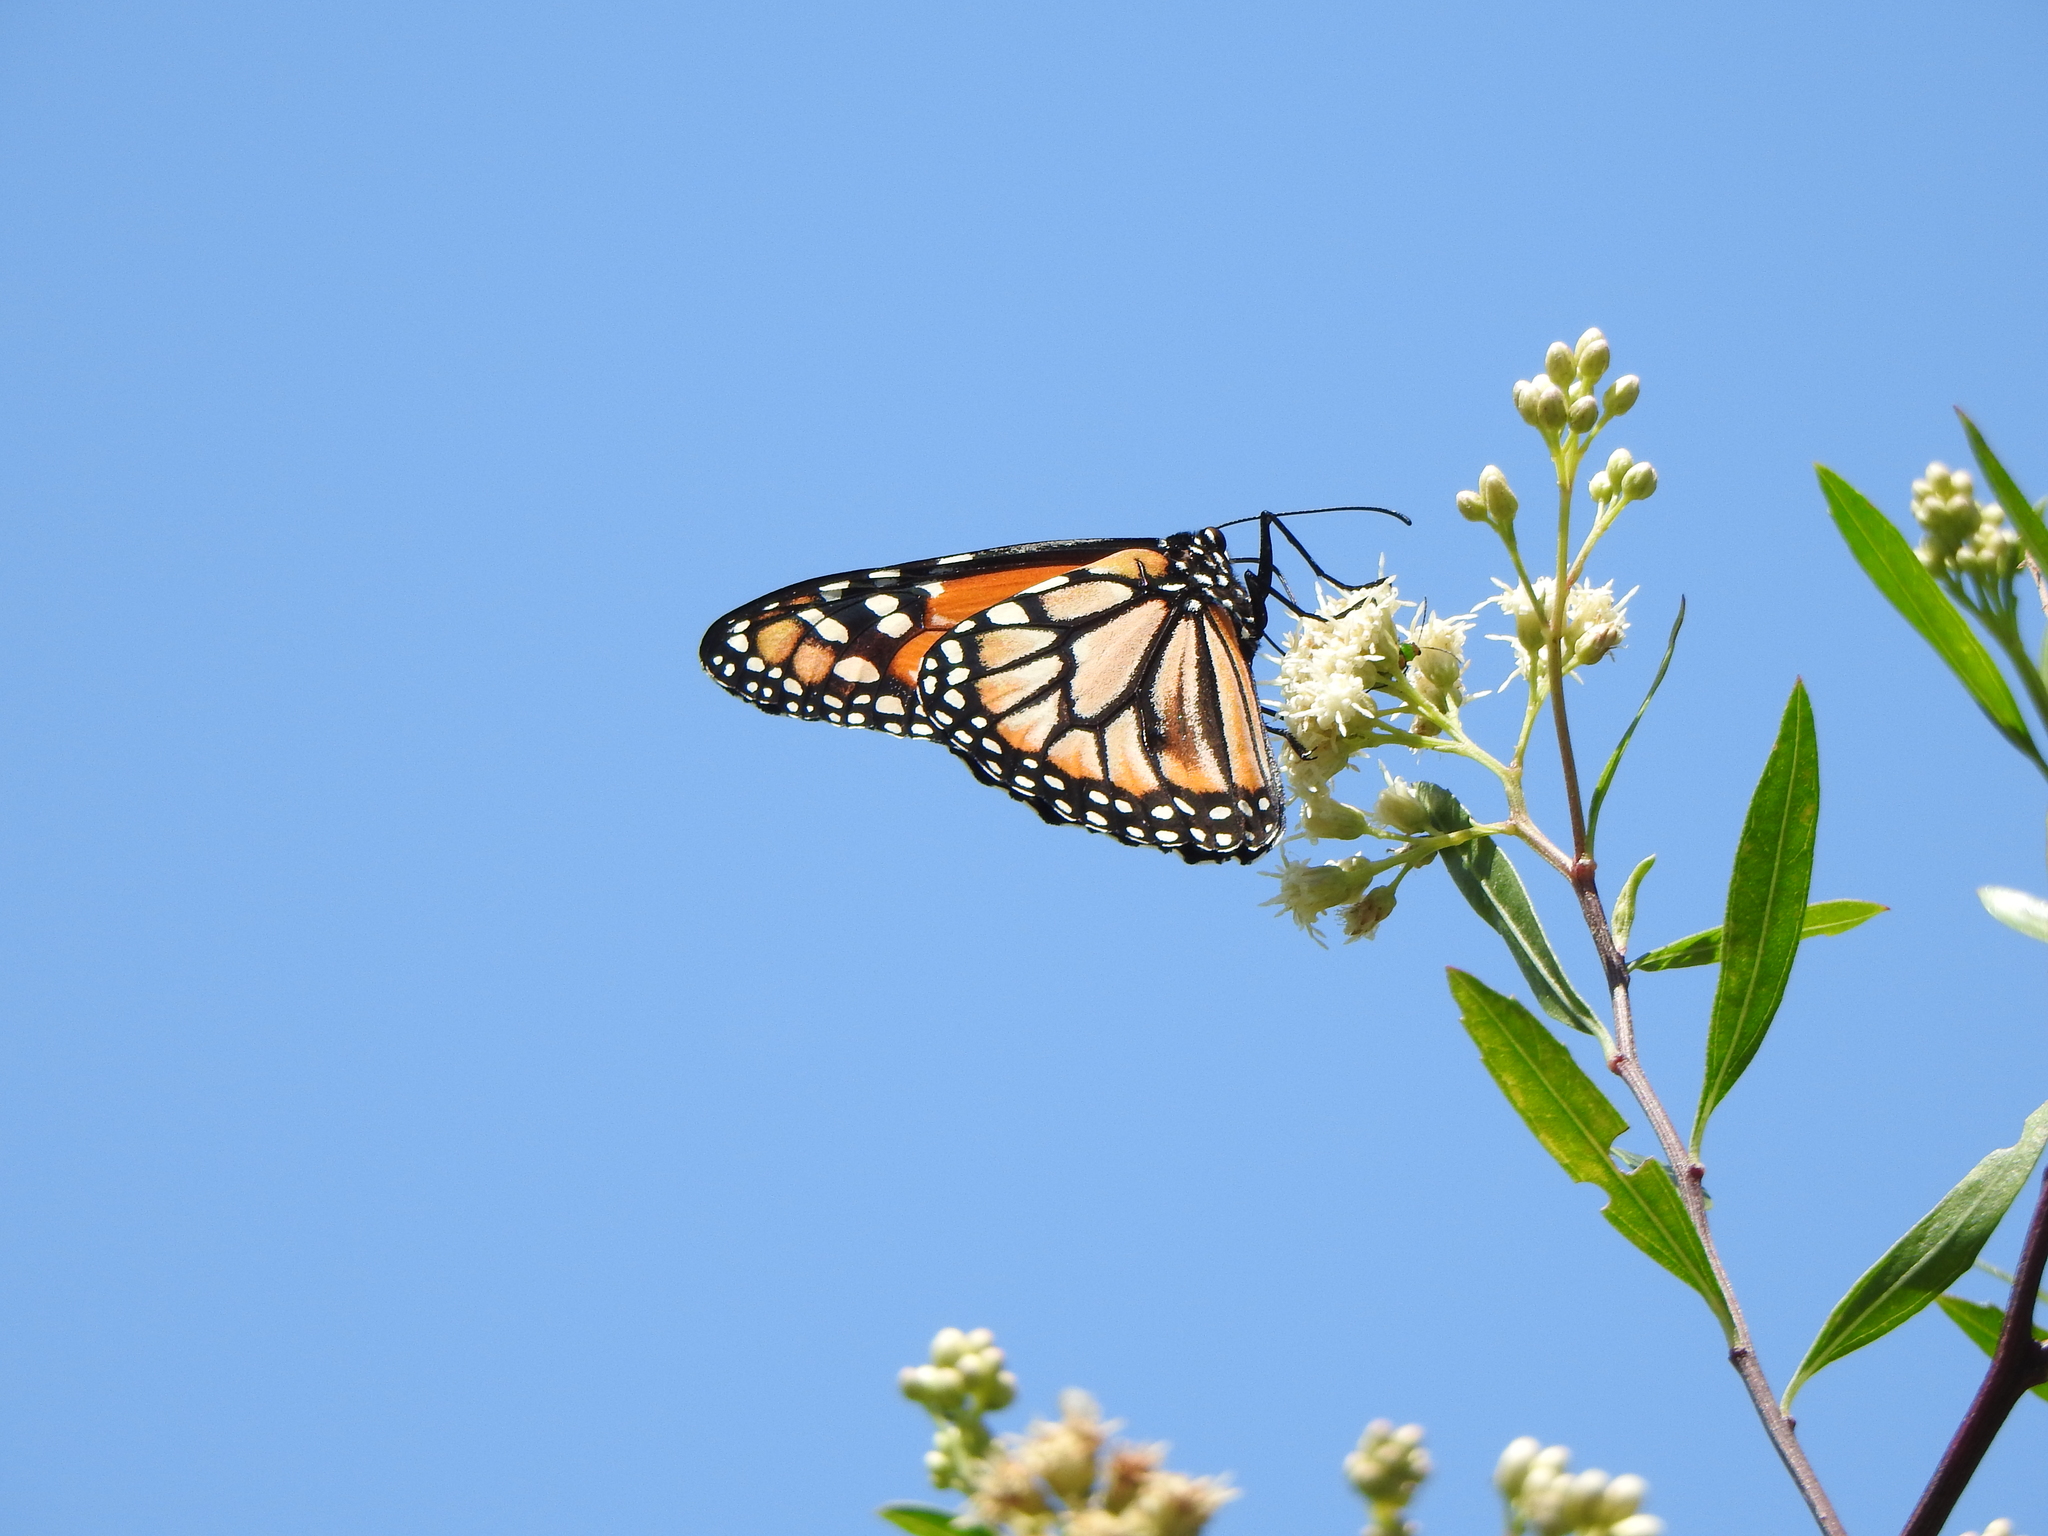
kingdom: Animalia
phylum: Arthropoda
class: Insecta
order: Lepidoptera
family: Nymphalidae
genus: Danaus
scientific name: Danaus erippus
